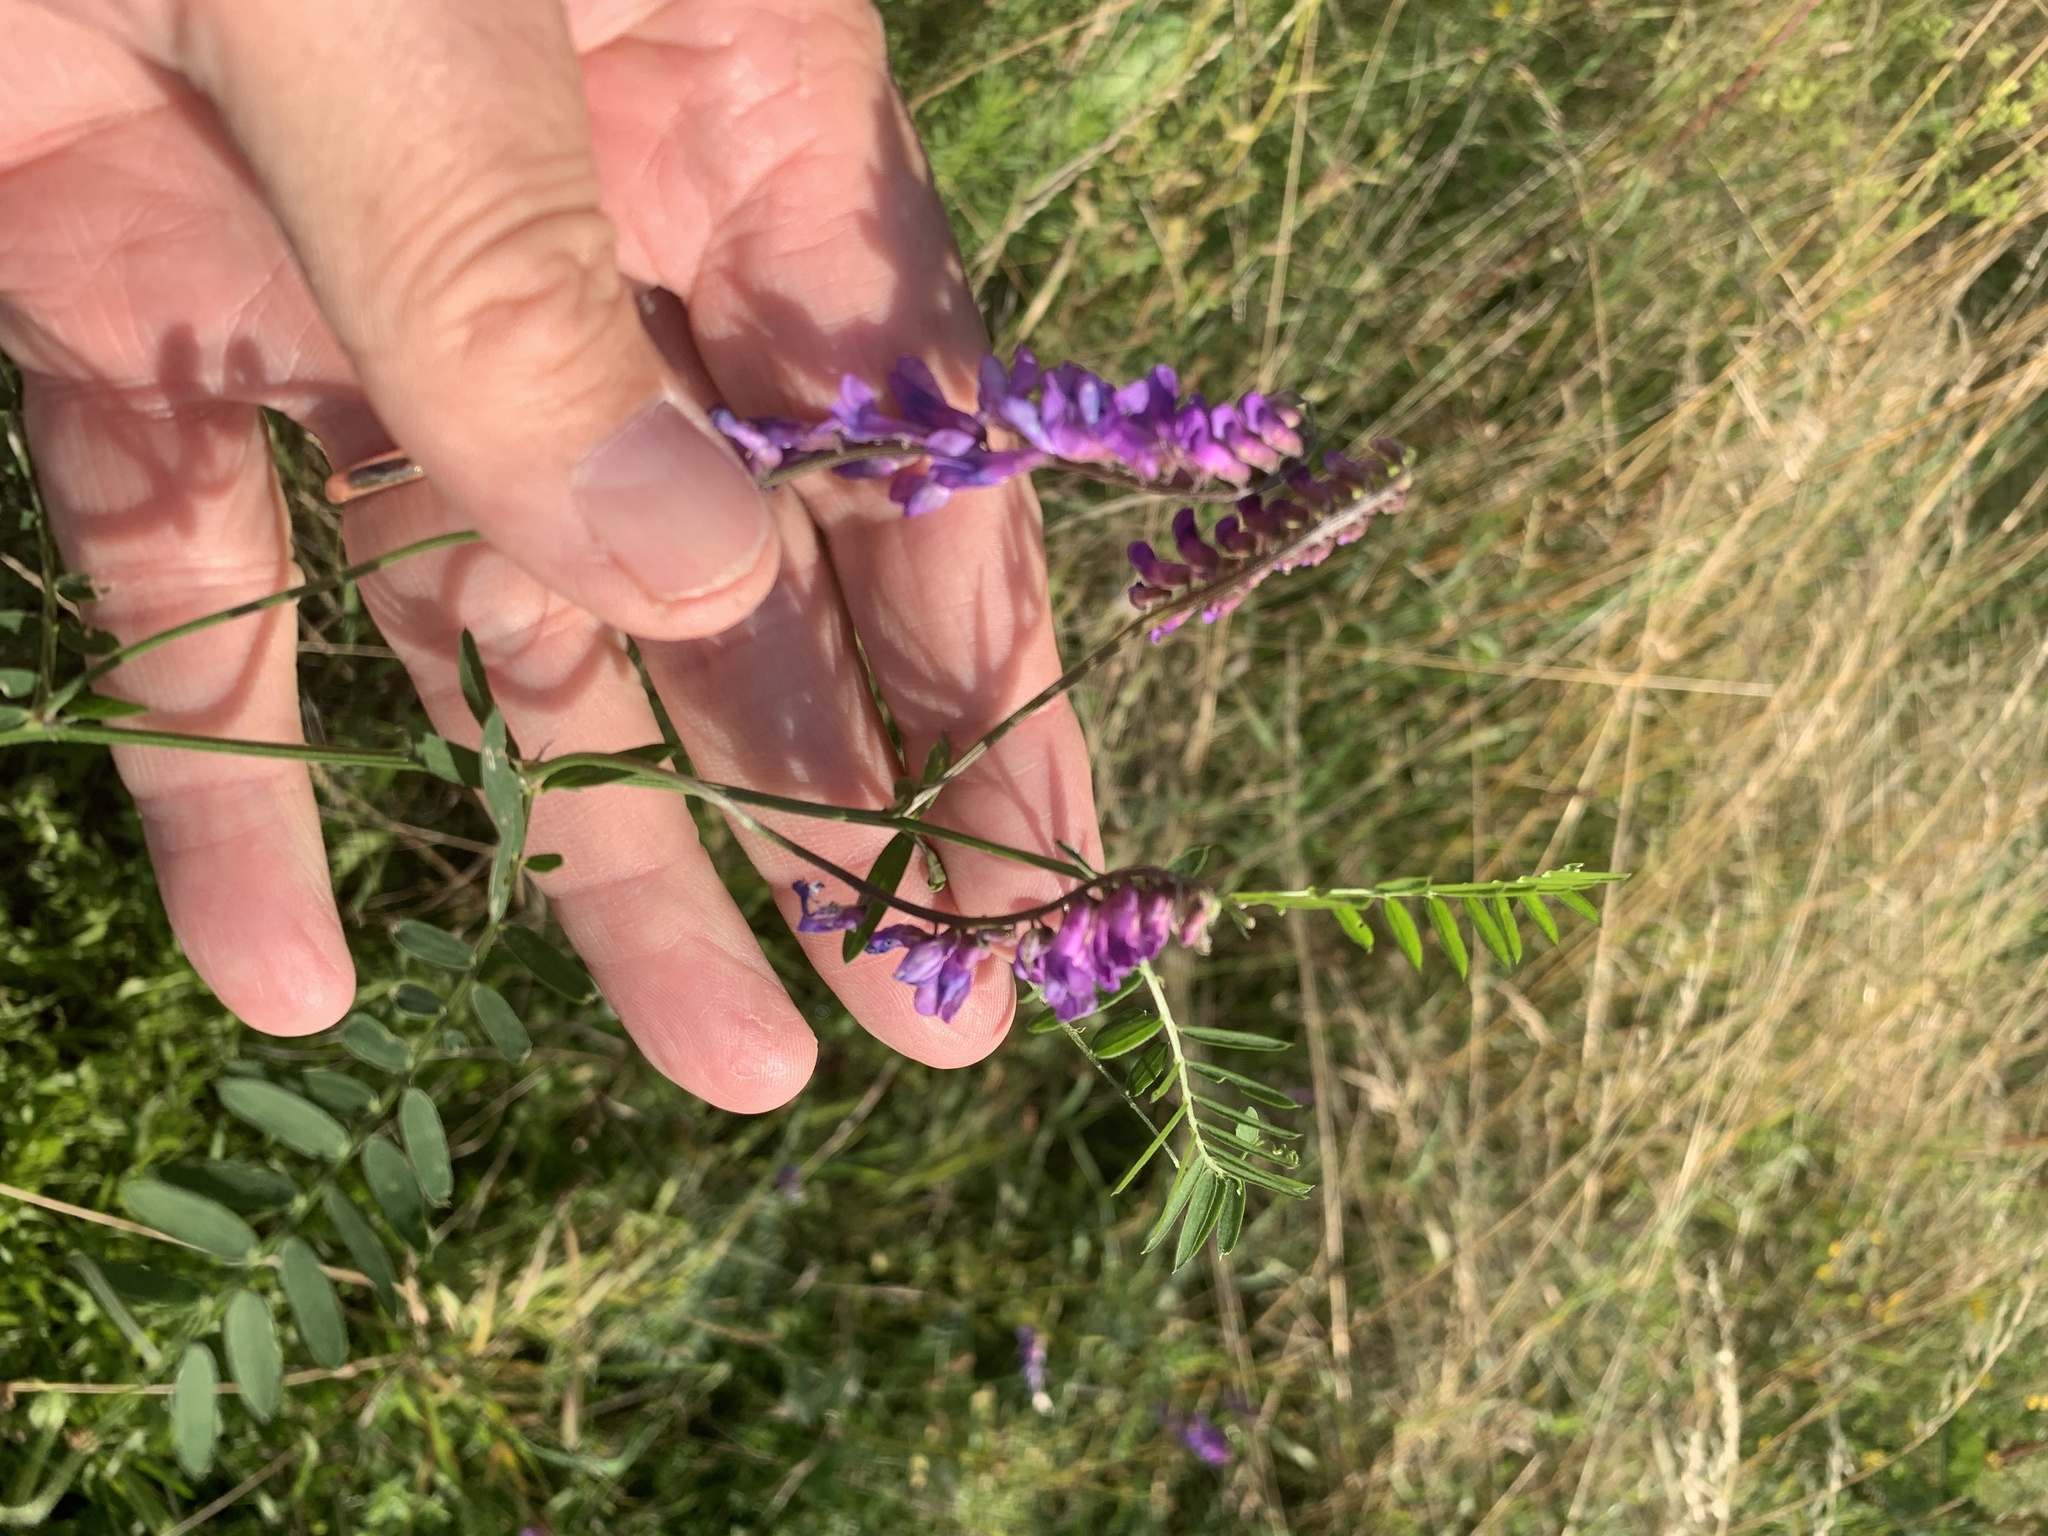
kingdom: Plantae
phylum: Tracheophyta
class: Magnoliopsida
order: Fabales
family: Fabaceae
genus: Vicia
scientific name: Vicia cracca
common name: Bird vetch
